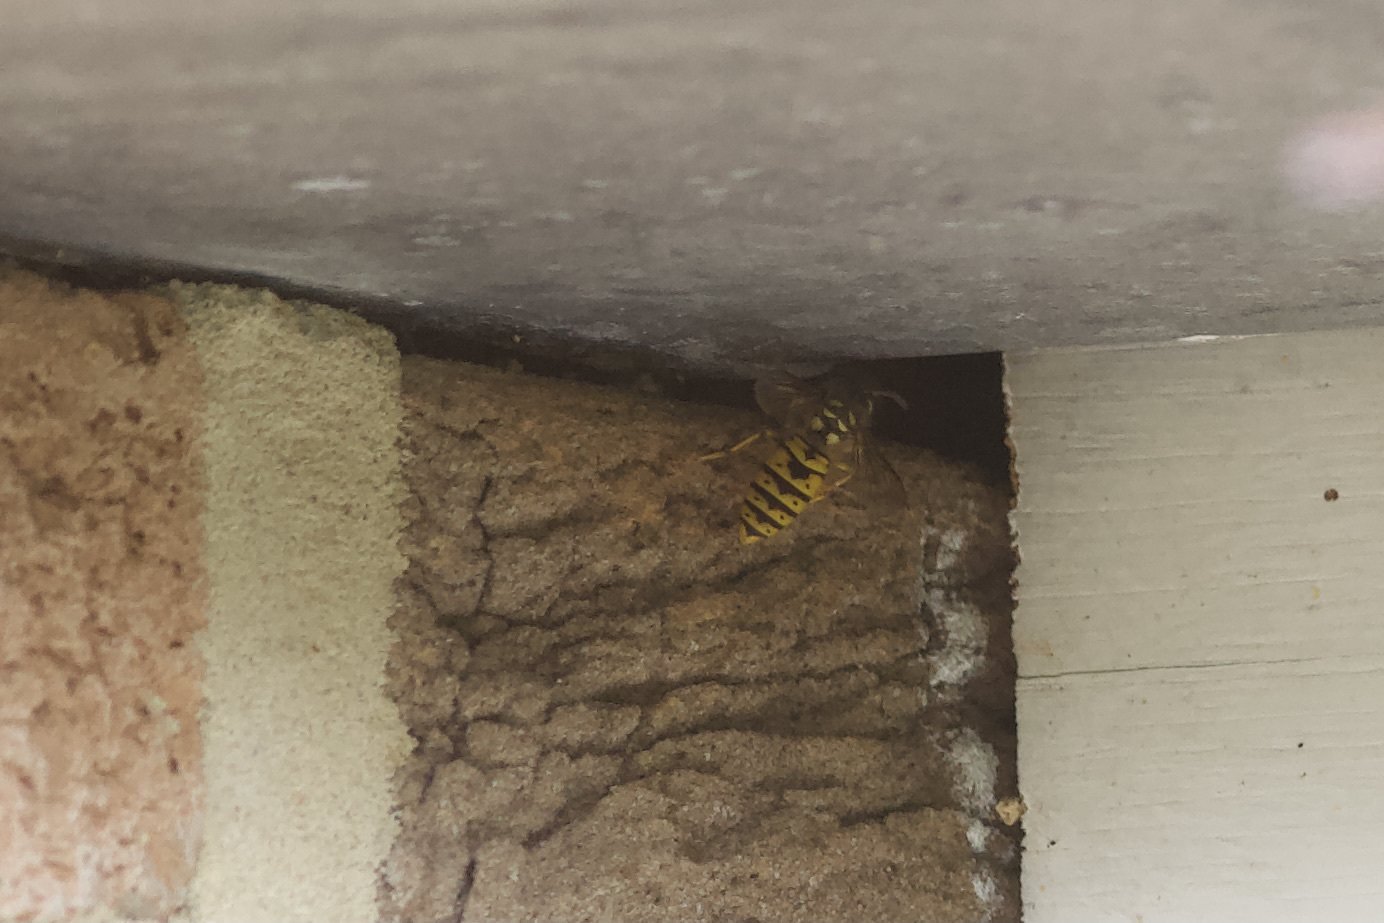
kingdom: Animalia
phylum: Arthropoda
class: Insecta
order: Hymenoptera
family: Vespidae
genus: Vespula
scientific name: Vespula vulgaris
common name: Common wasp
